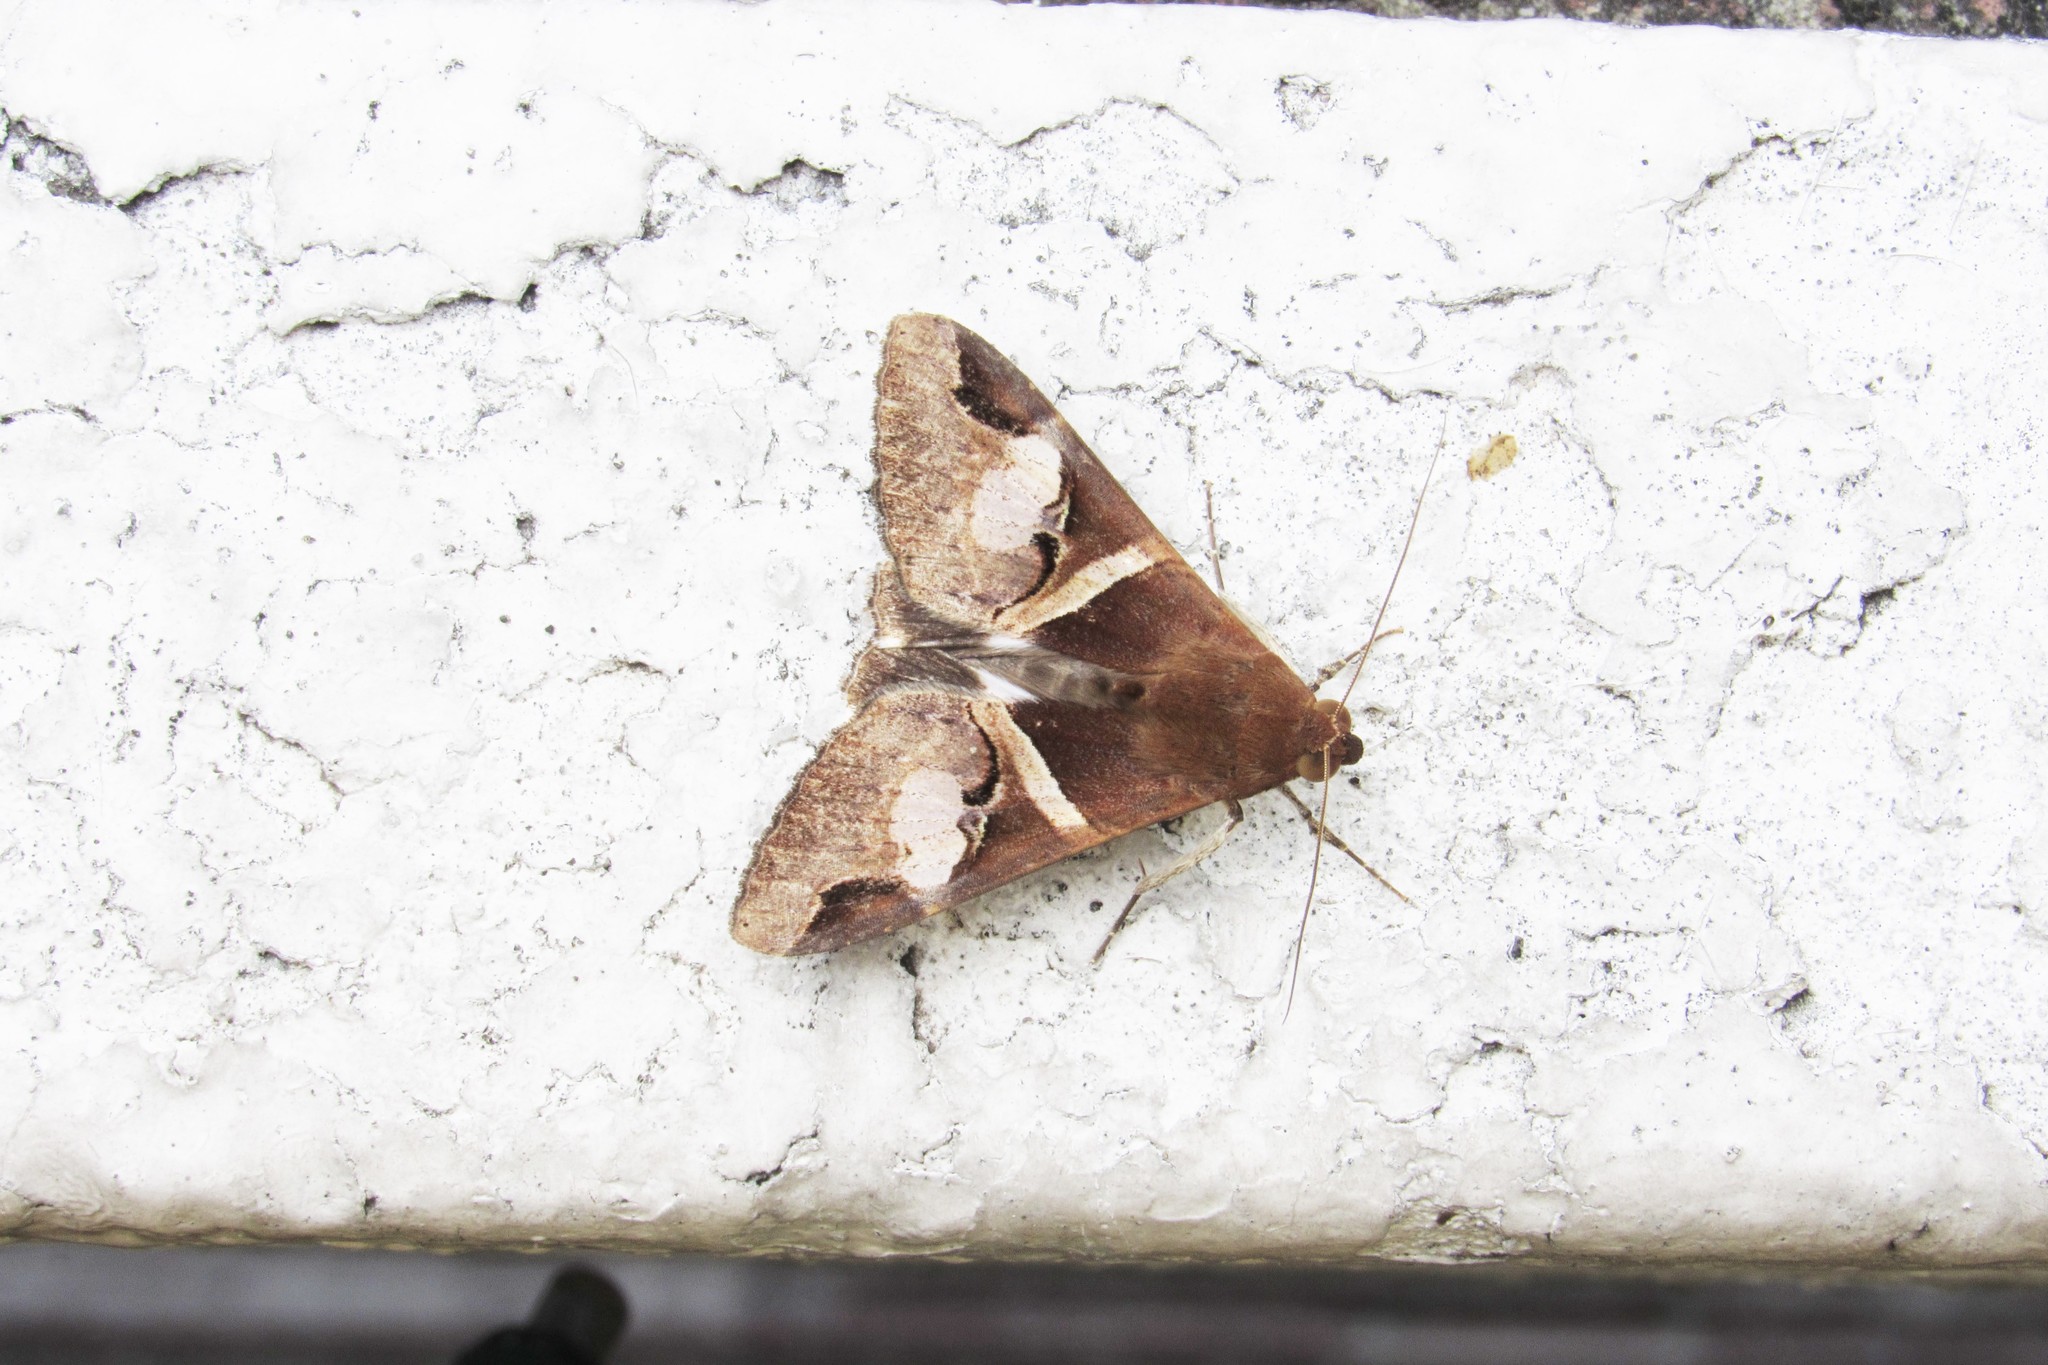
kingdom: Animalia
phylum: Arthropoda
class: Insecta
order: Lepidoptera
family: Erebidae
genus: Melipotis
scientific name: Melipotis fasciolaris
